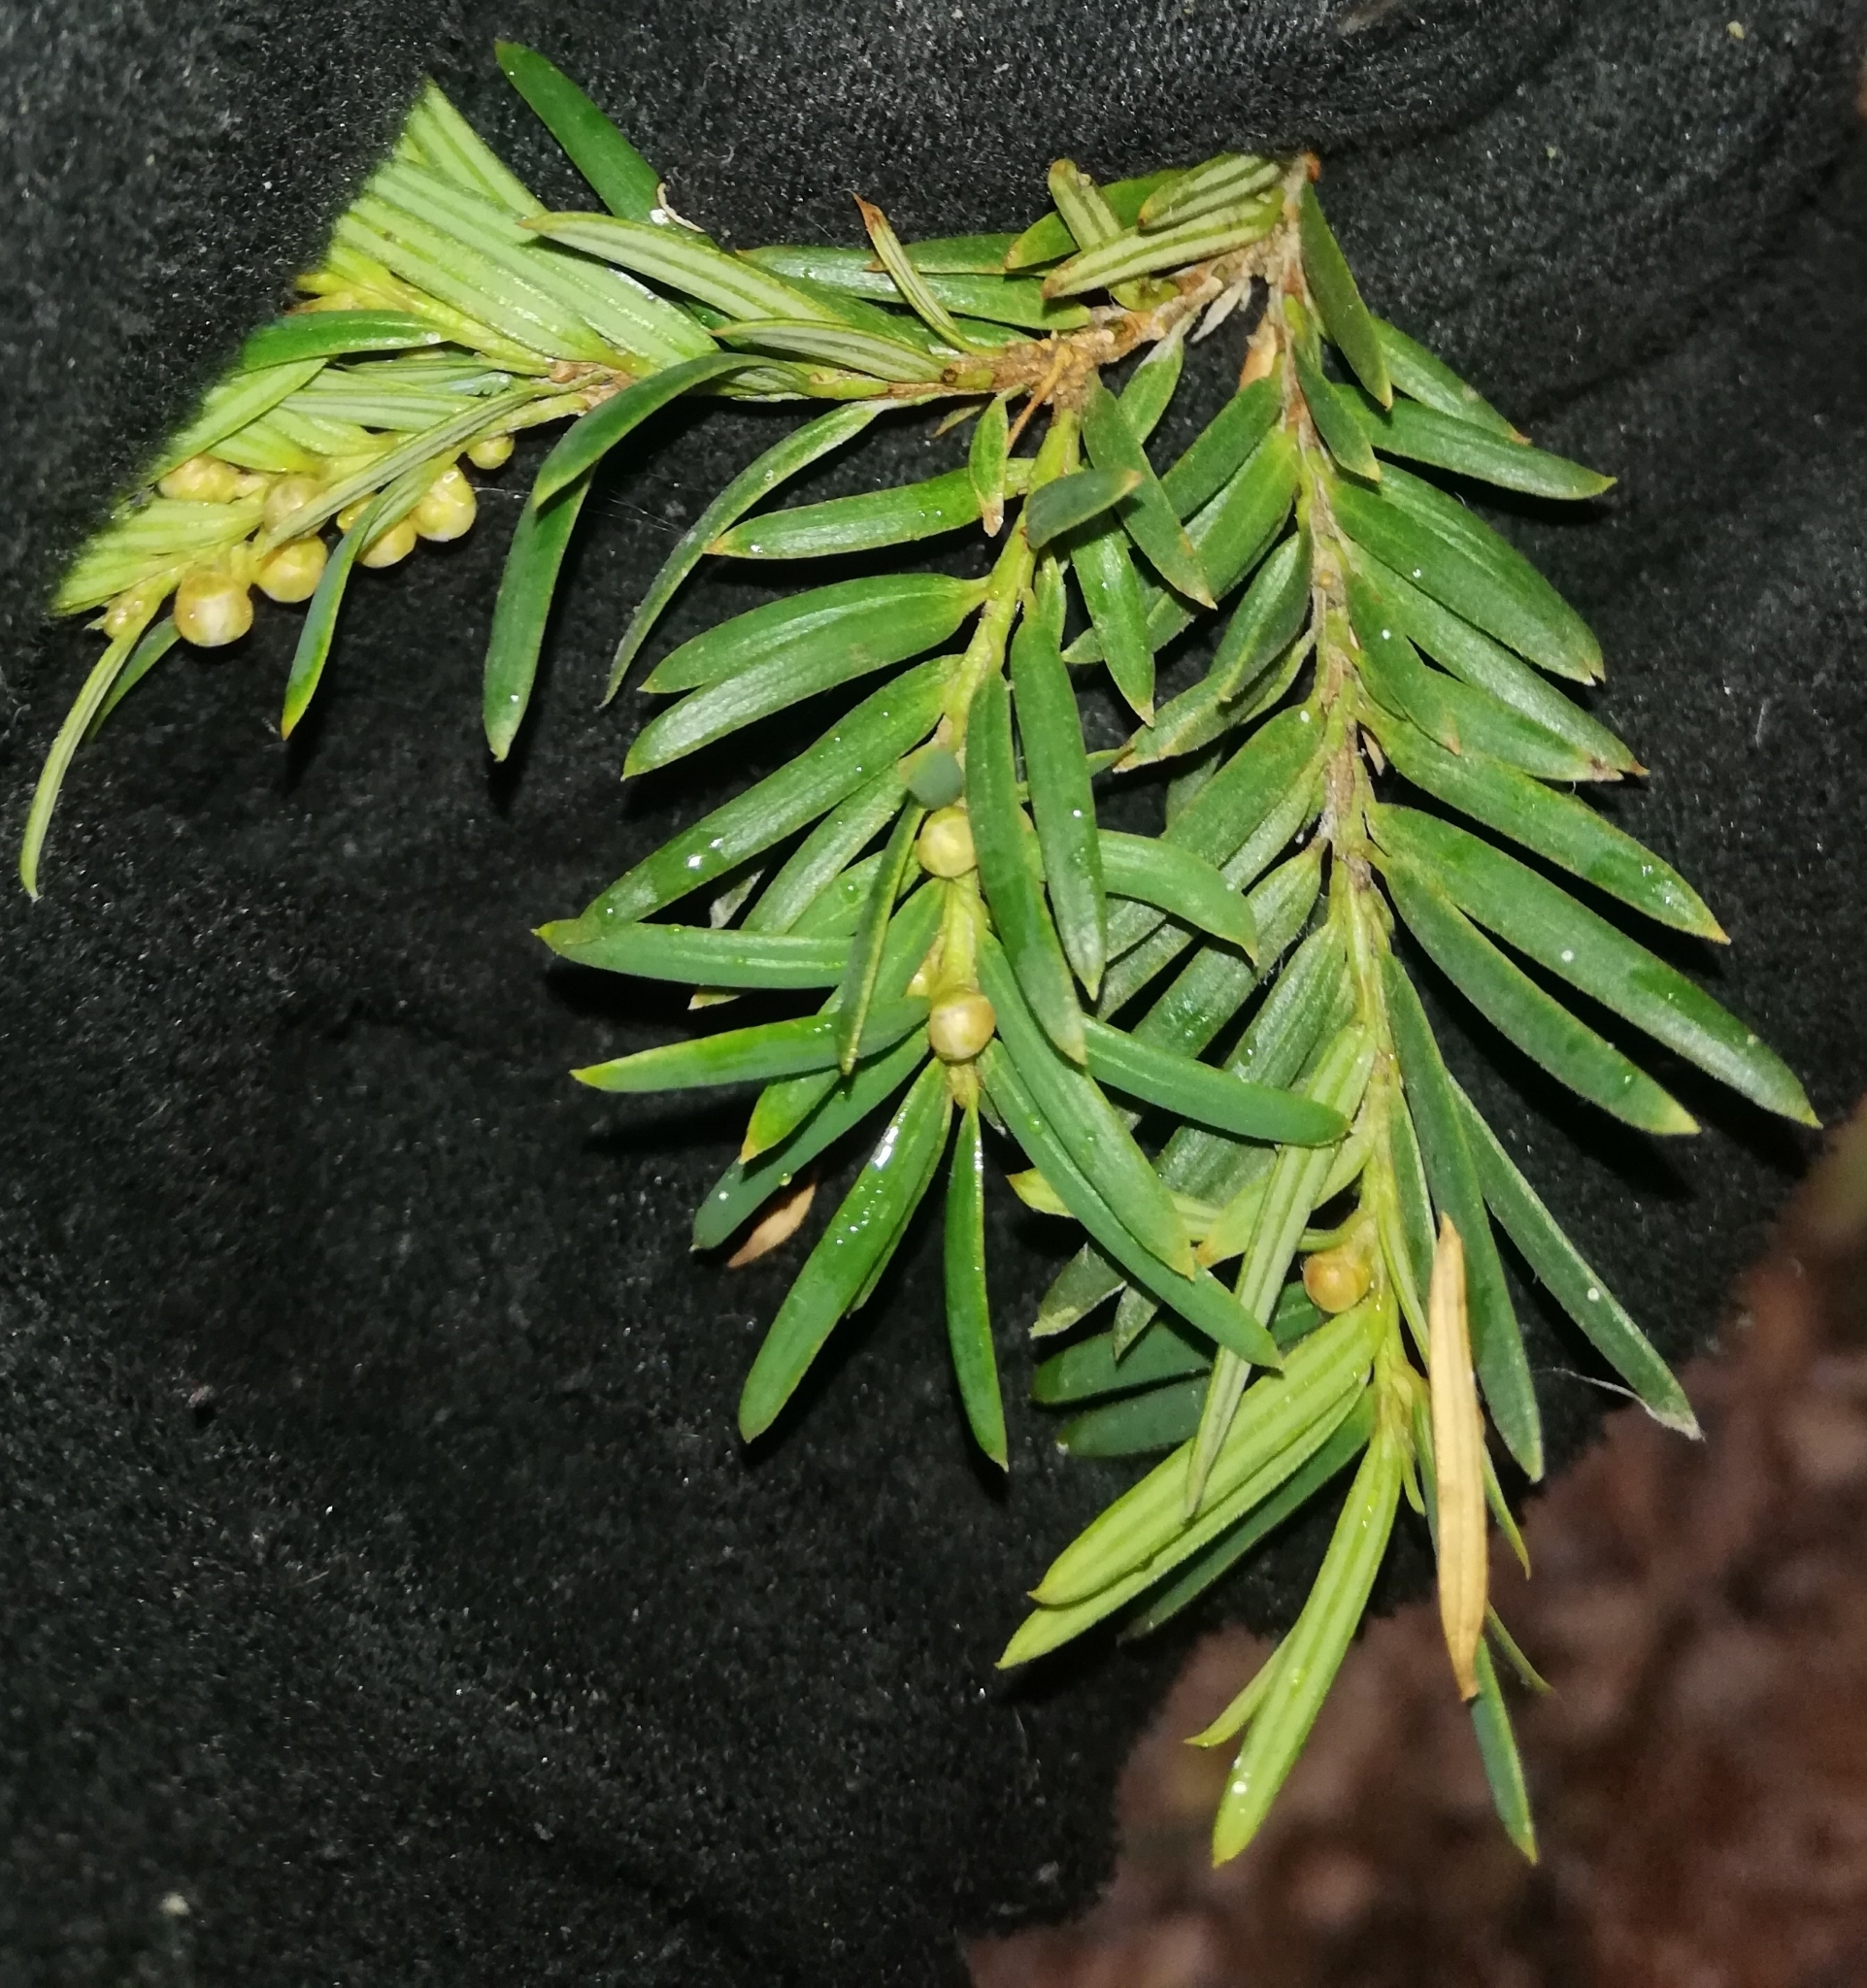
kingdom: Plantae
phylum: Tracheophyta
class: Pinopsida
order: Pinales
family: Taxaceae
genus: Taxus
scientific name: Taxus baccata
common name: Yew
